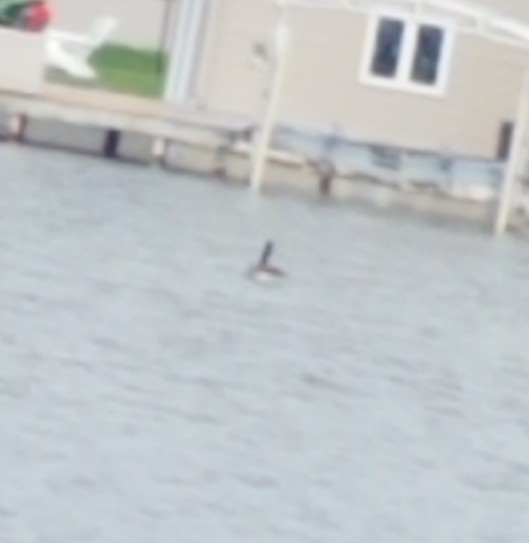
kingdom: Animalia
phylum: Chordata
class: Aves
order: Anseriformes
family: Anatidae
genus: Branta
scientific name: Branta canadensis
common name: Canada goose
